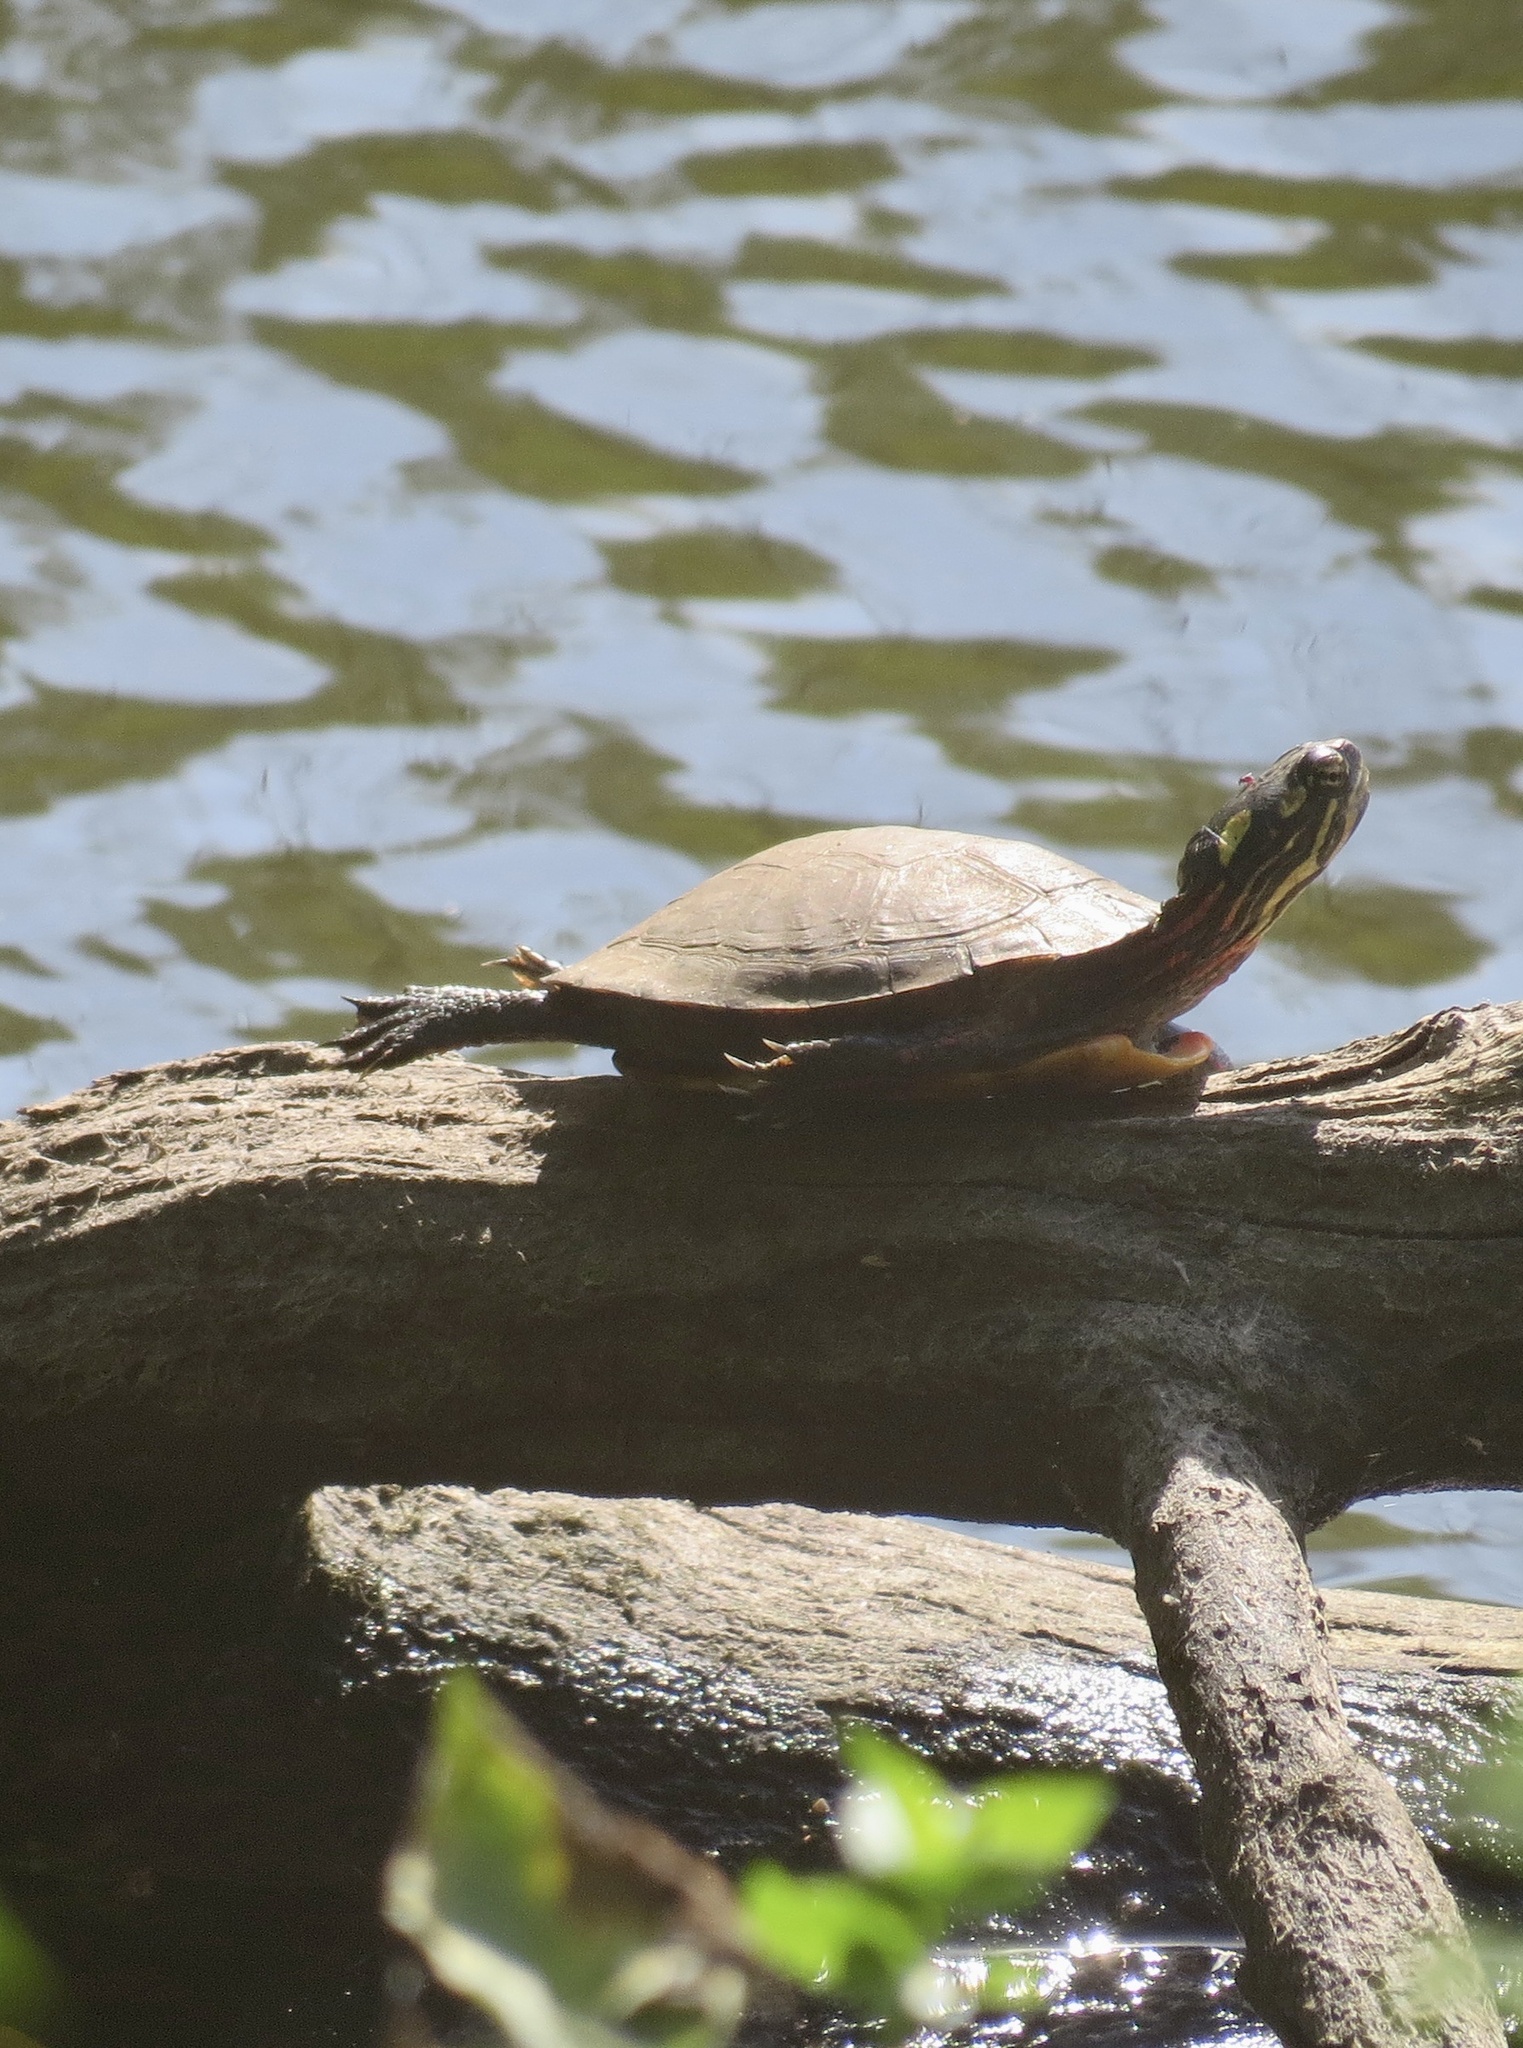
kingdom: Animalia
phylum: Chordata
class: Testudines
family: Emydidae
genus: Chrysemys
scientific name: Chrysemys picta
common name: Painted turtle
